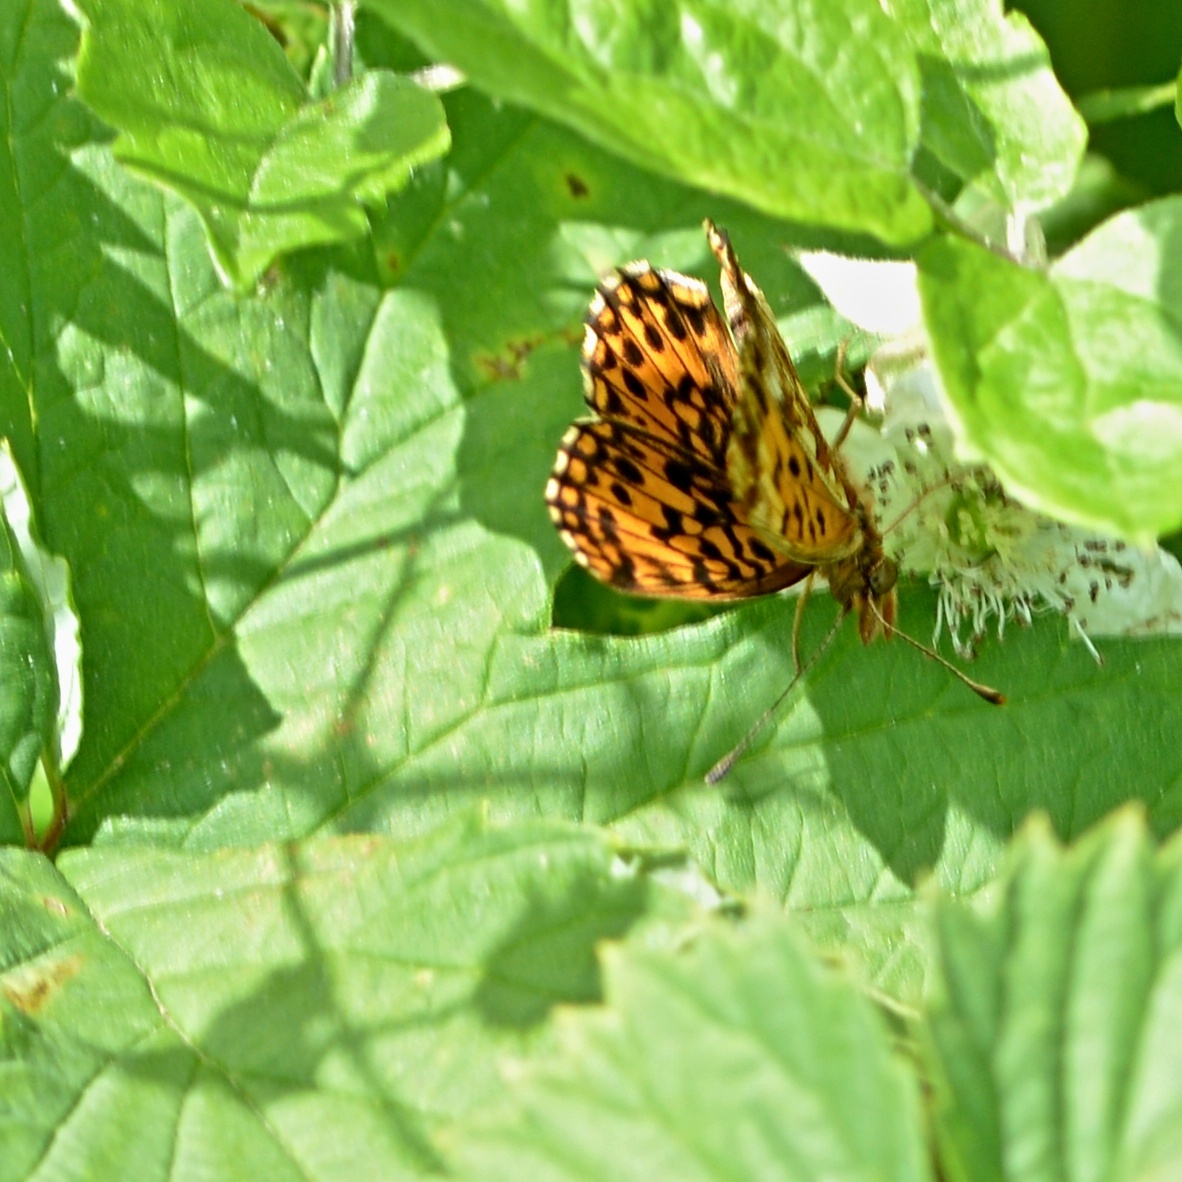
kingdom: Animalia
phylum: Arthropoda
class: Insecta
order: Lepidoptera
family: Nymphalidae
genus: Boloria
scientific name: Boloria dia
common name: Weaver's fritillary
